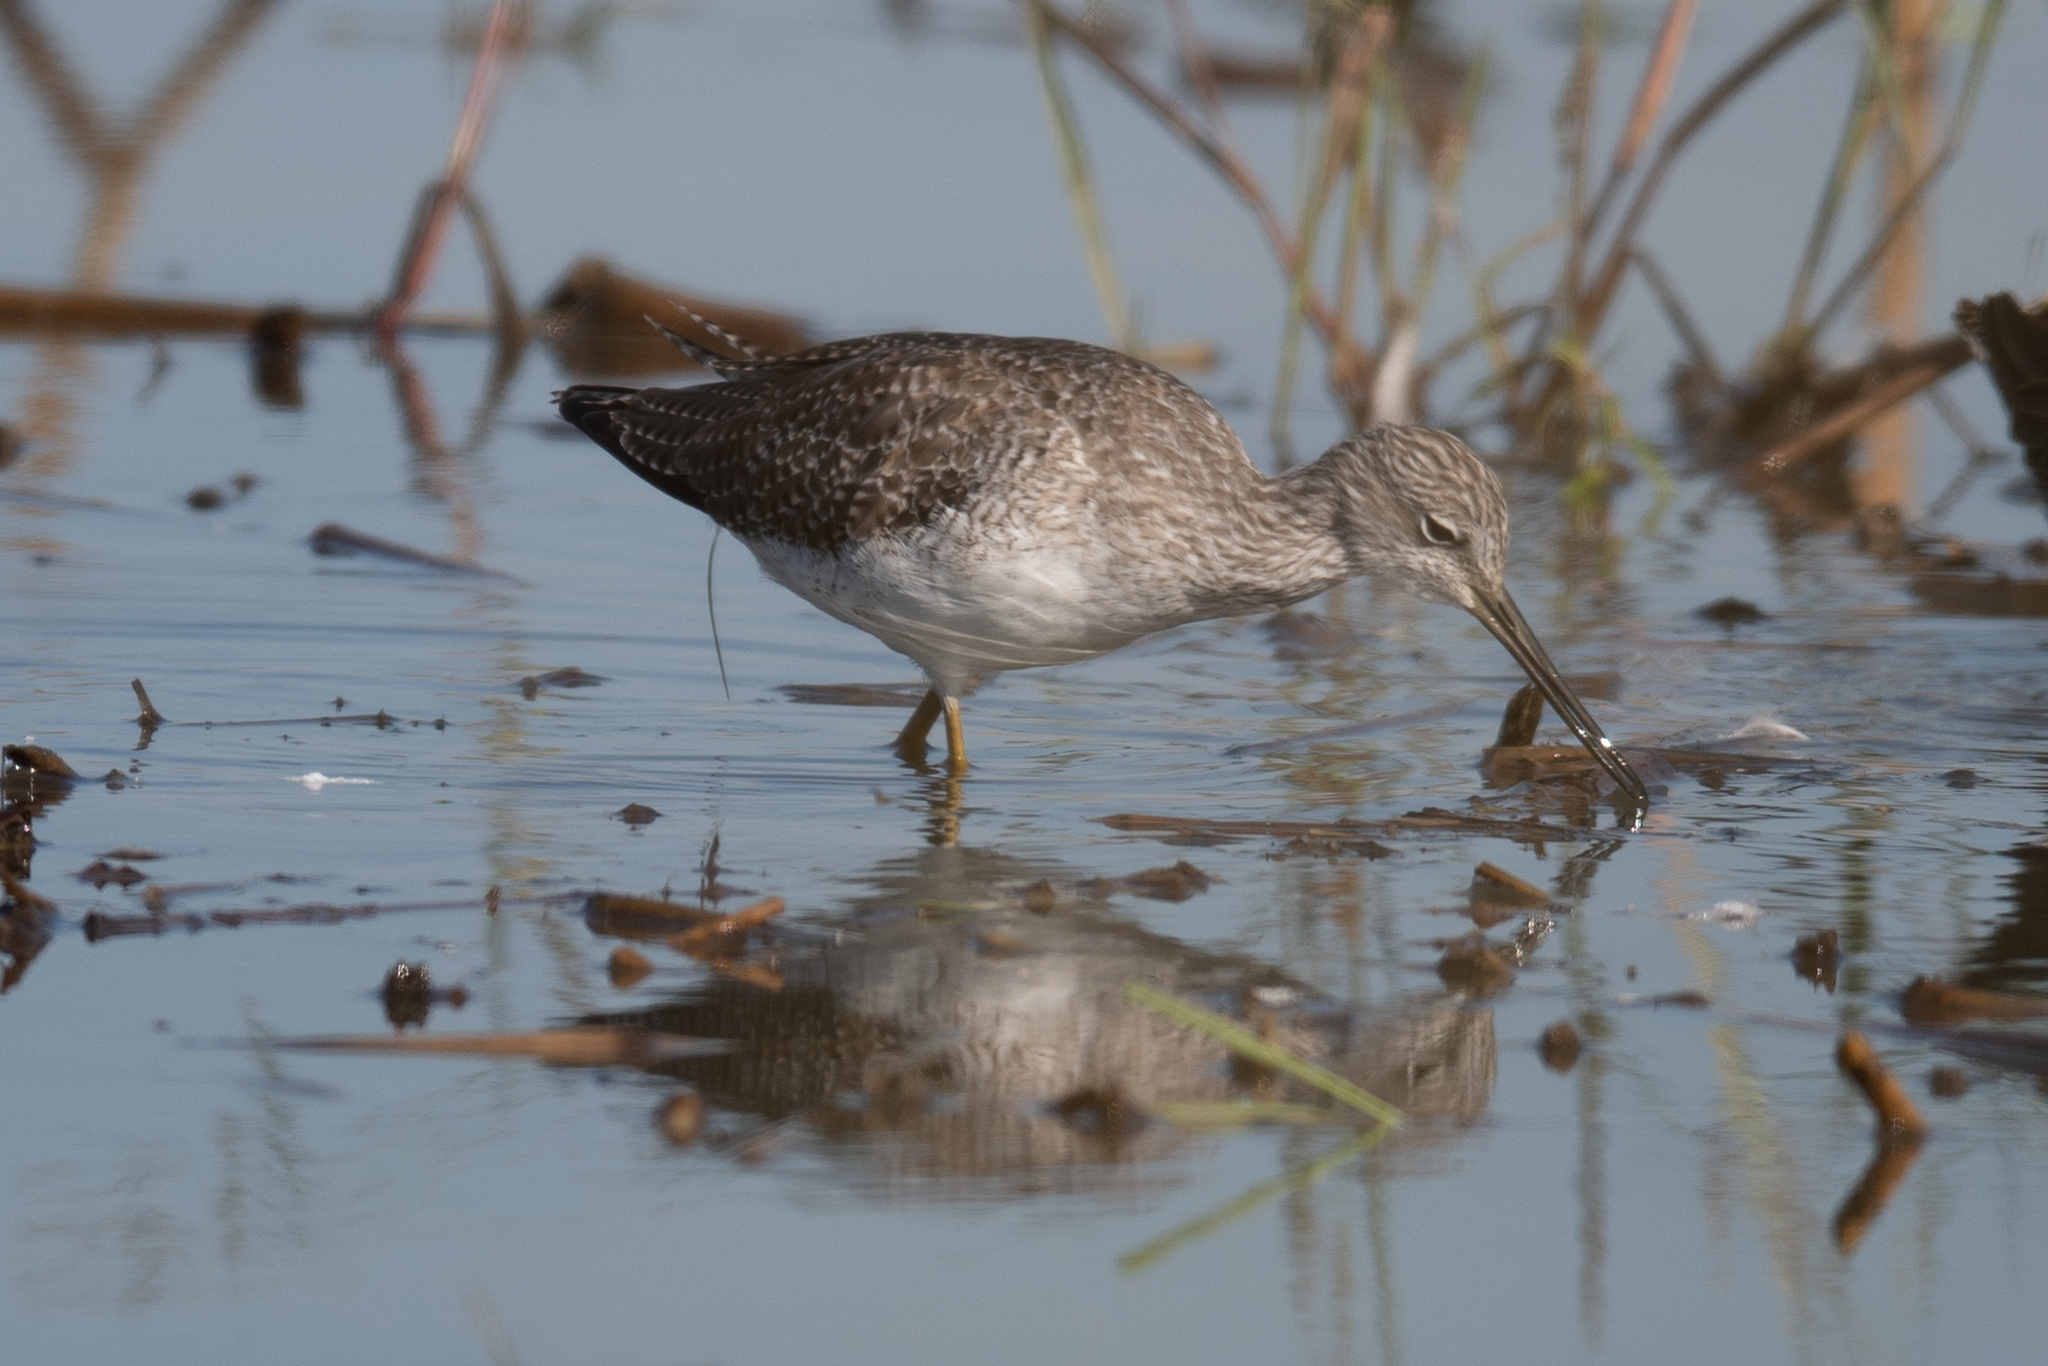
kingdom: Animalia
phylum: Chordata
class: Aves
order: Charadriiformes
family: Scolopacidae
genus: Tringa
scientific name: Tringa melanoleuca
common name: Greater yellowlegs
